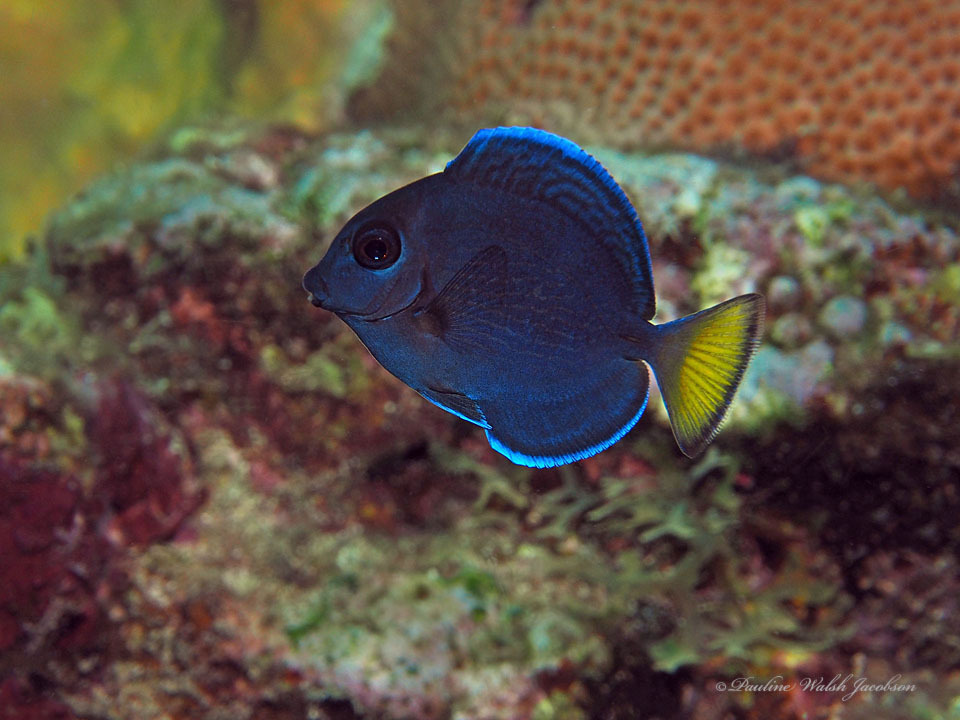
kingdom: Animalia
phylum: Chordata
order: Perciformes
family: Acanthuridae
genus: Acanthurus
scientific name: Acanthurus coeruleus
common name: Blue tang
